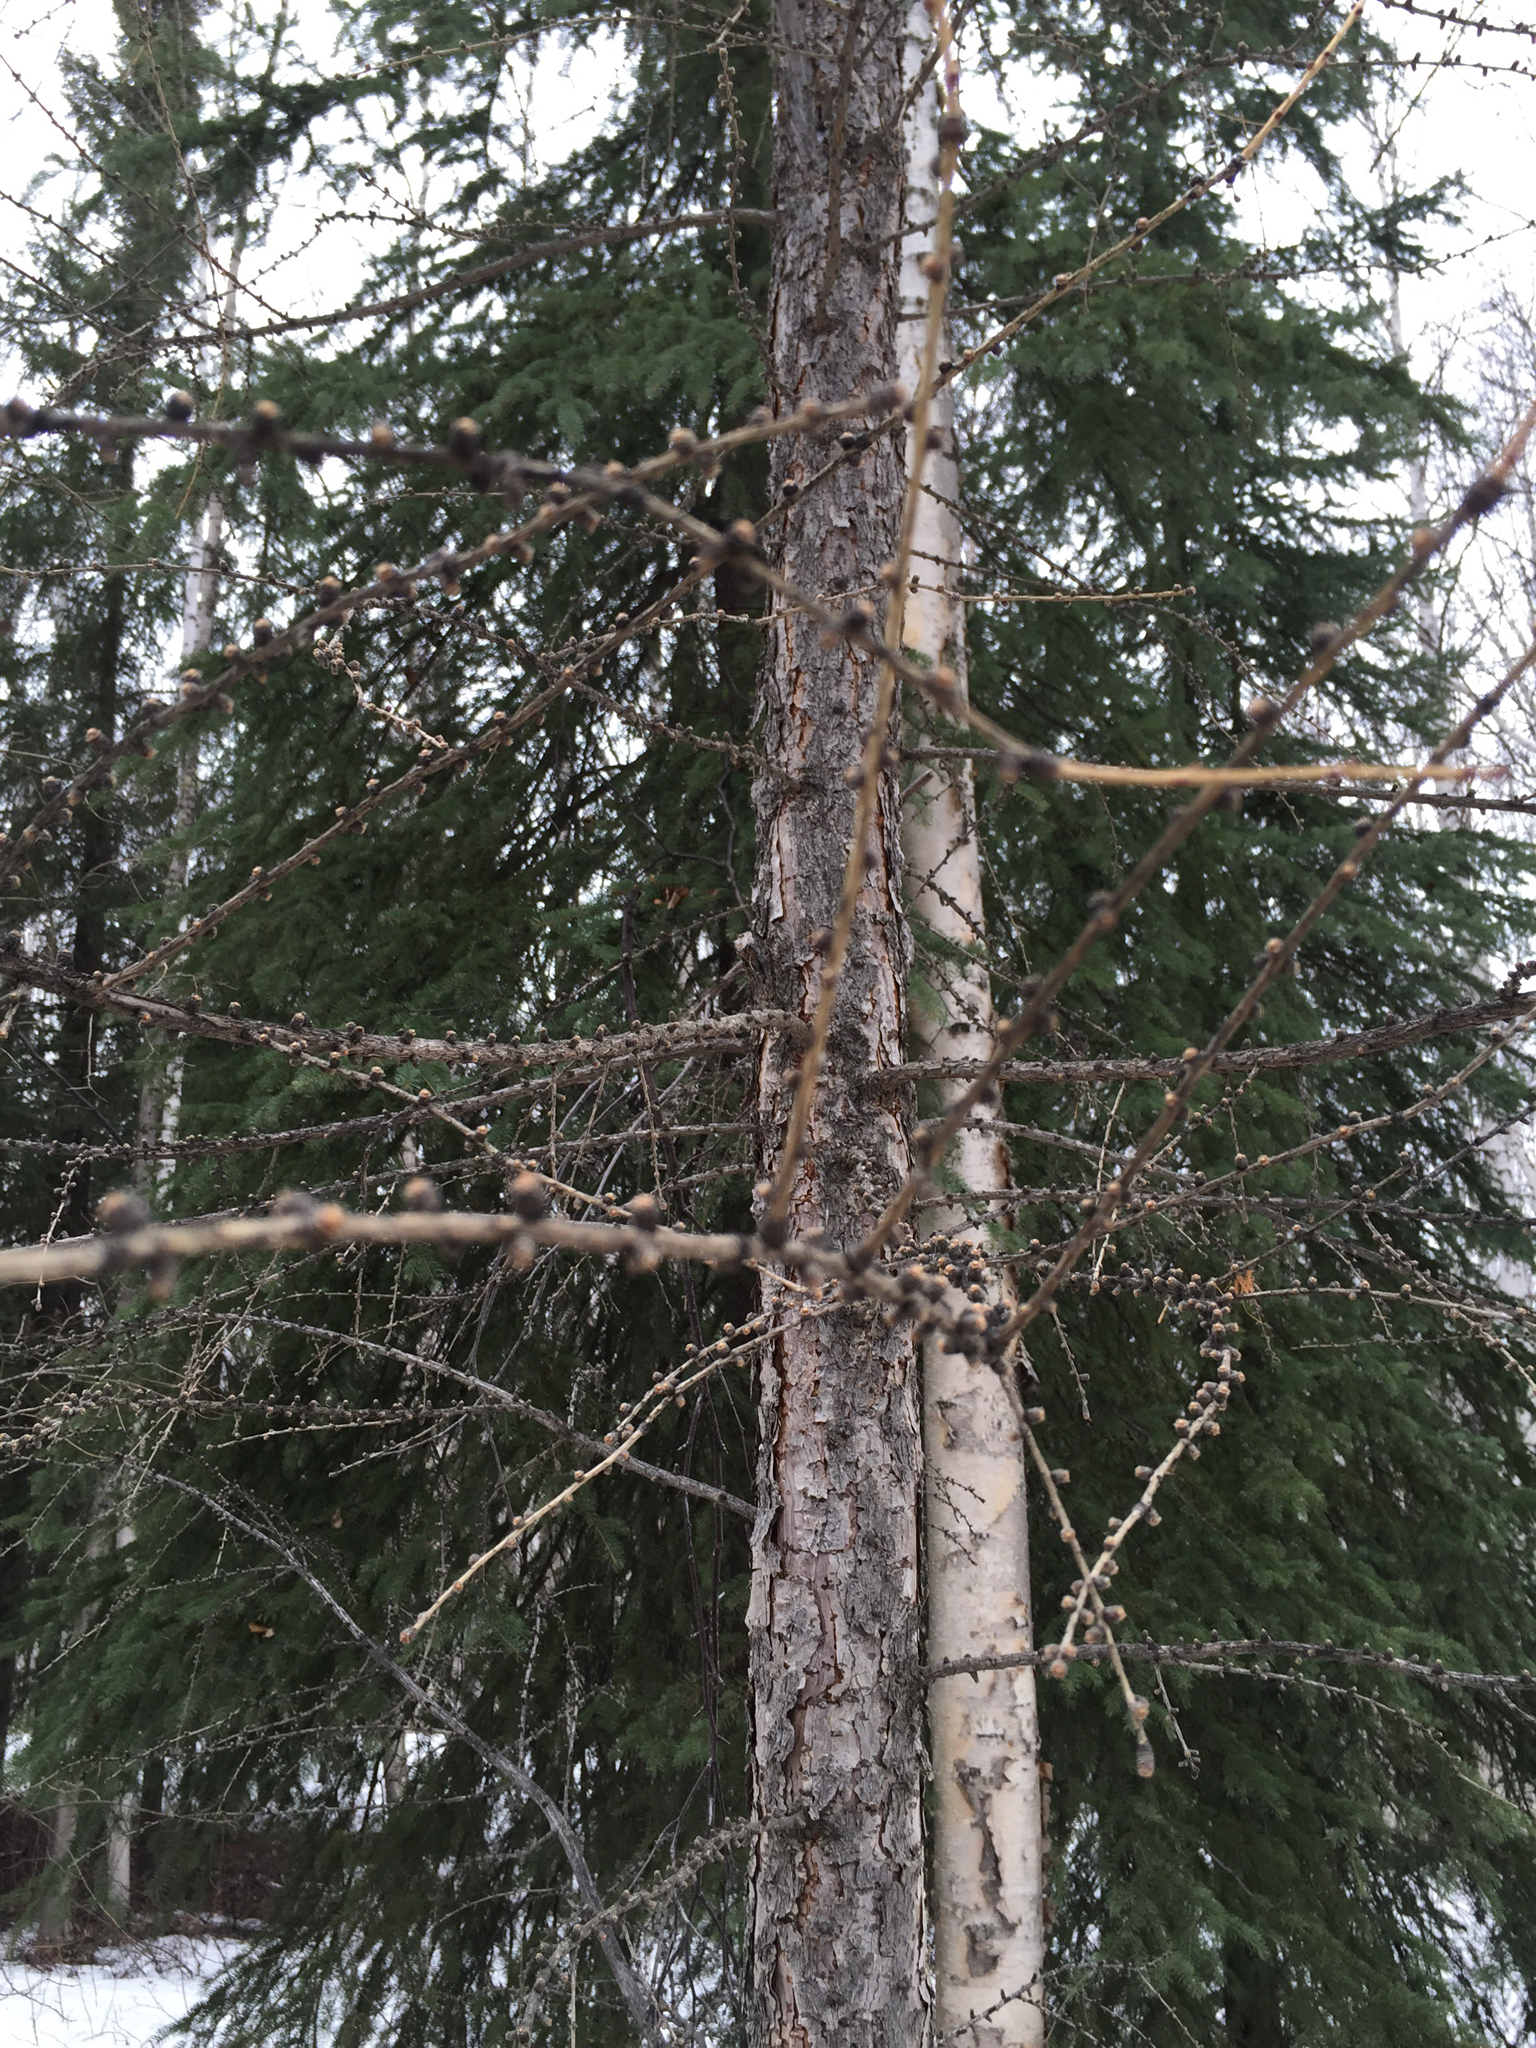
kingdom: Plantae
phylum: Tracheophyta
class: Pinopsida
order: Pinales
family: Pinaceae
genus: Larix
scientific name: Larix laricina
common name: American larch
